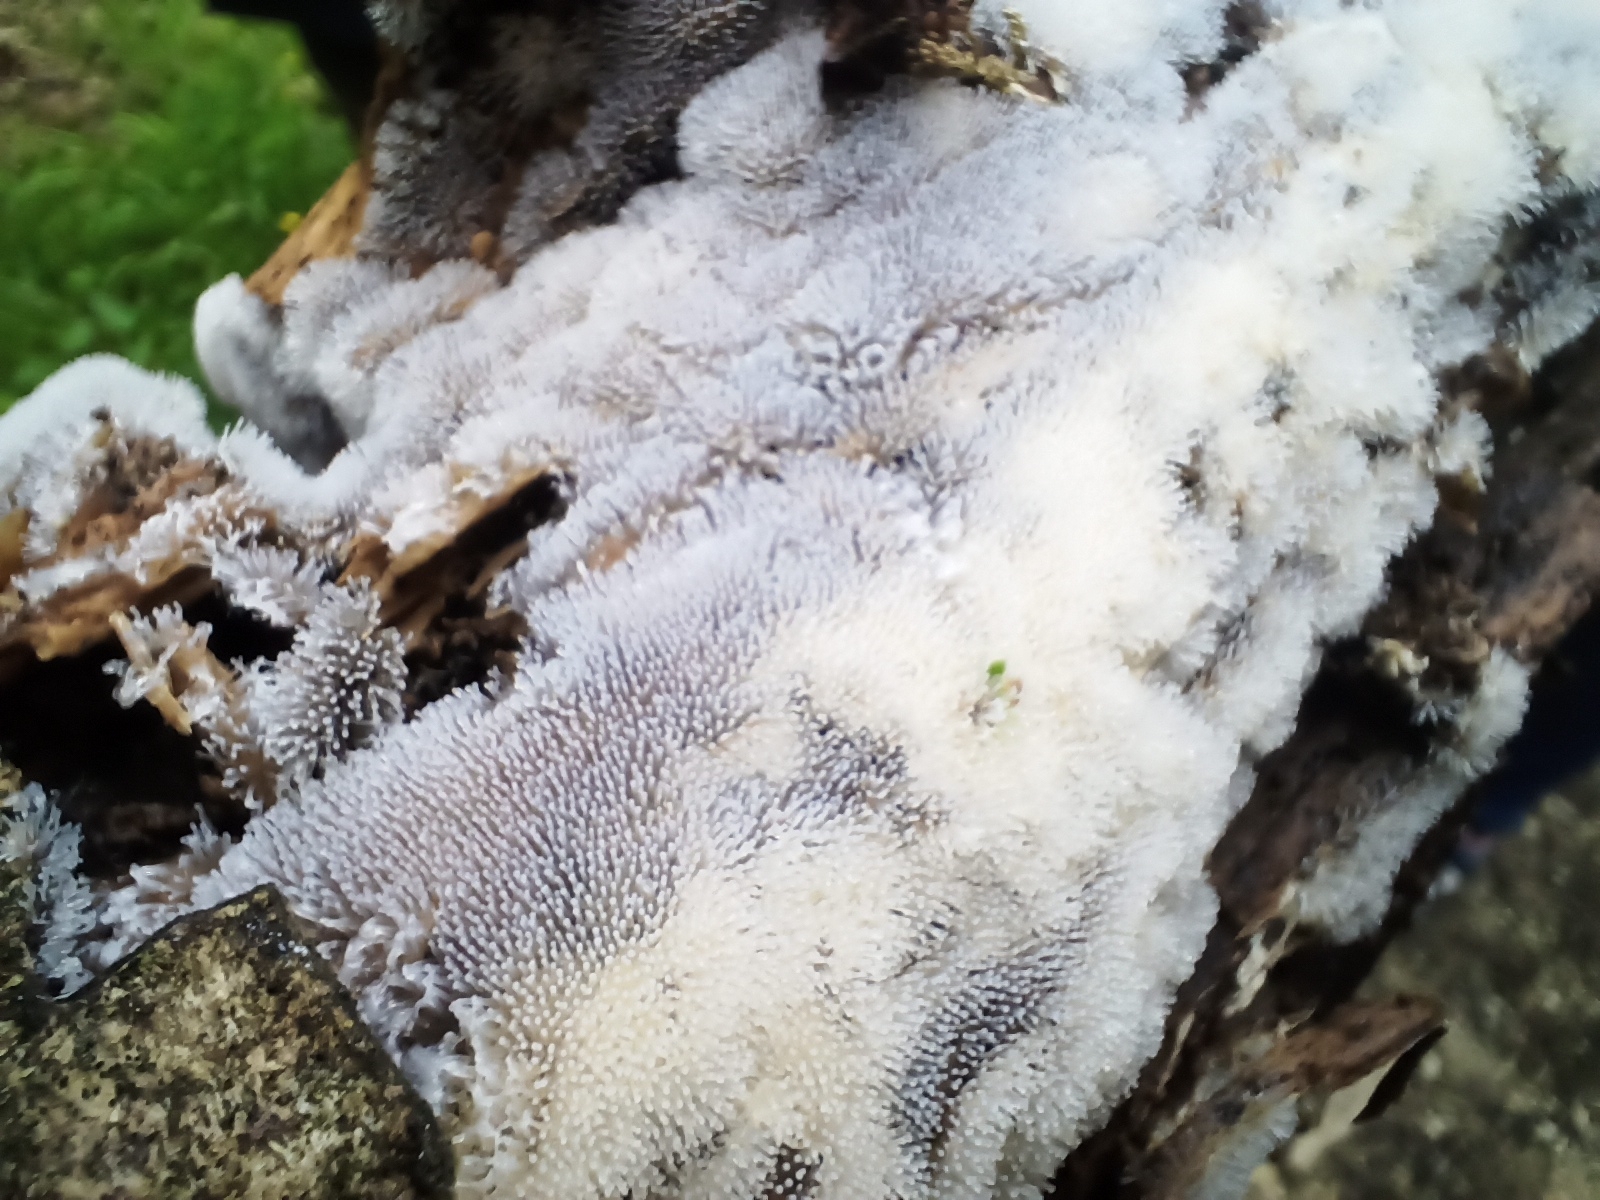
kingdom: Protozoa
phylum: Mycetozoa
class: Protosteliomycetes
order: Ceratiomyxales
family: Ceratiomyxaceae
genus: Ceratiomyxa
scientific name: Ceratiomyxa fruticulosa
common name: Honeycomb coral slime mold
